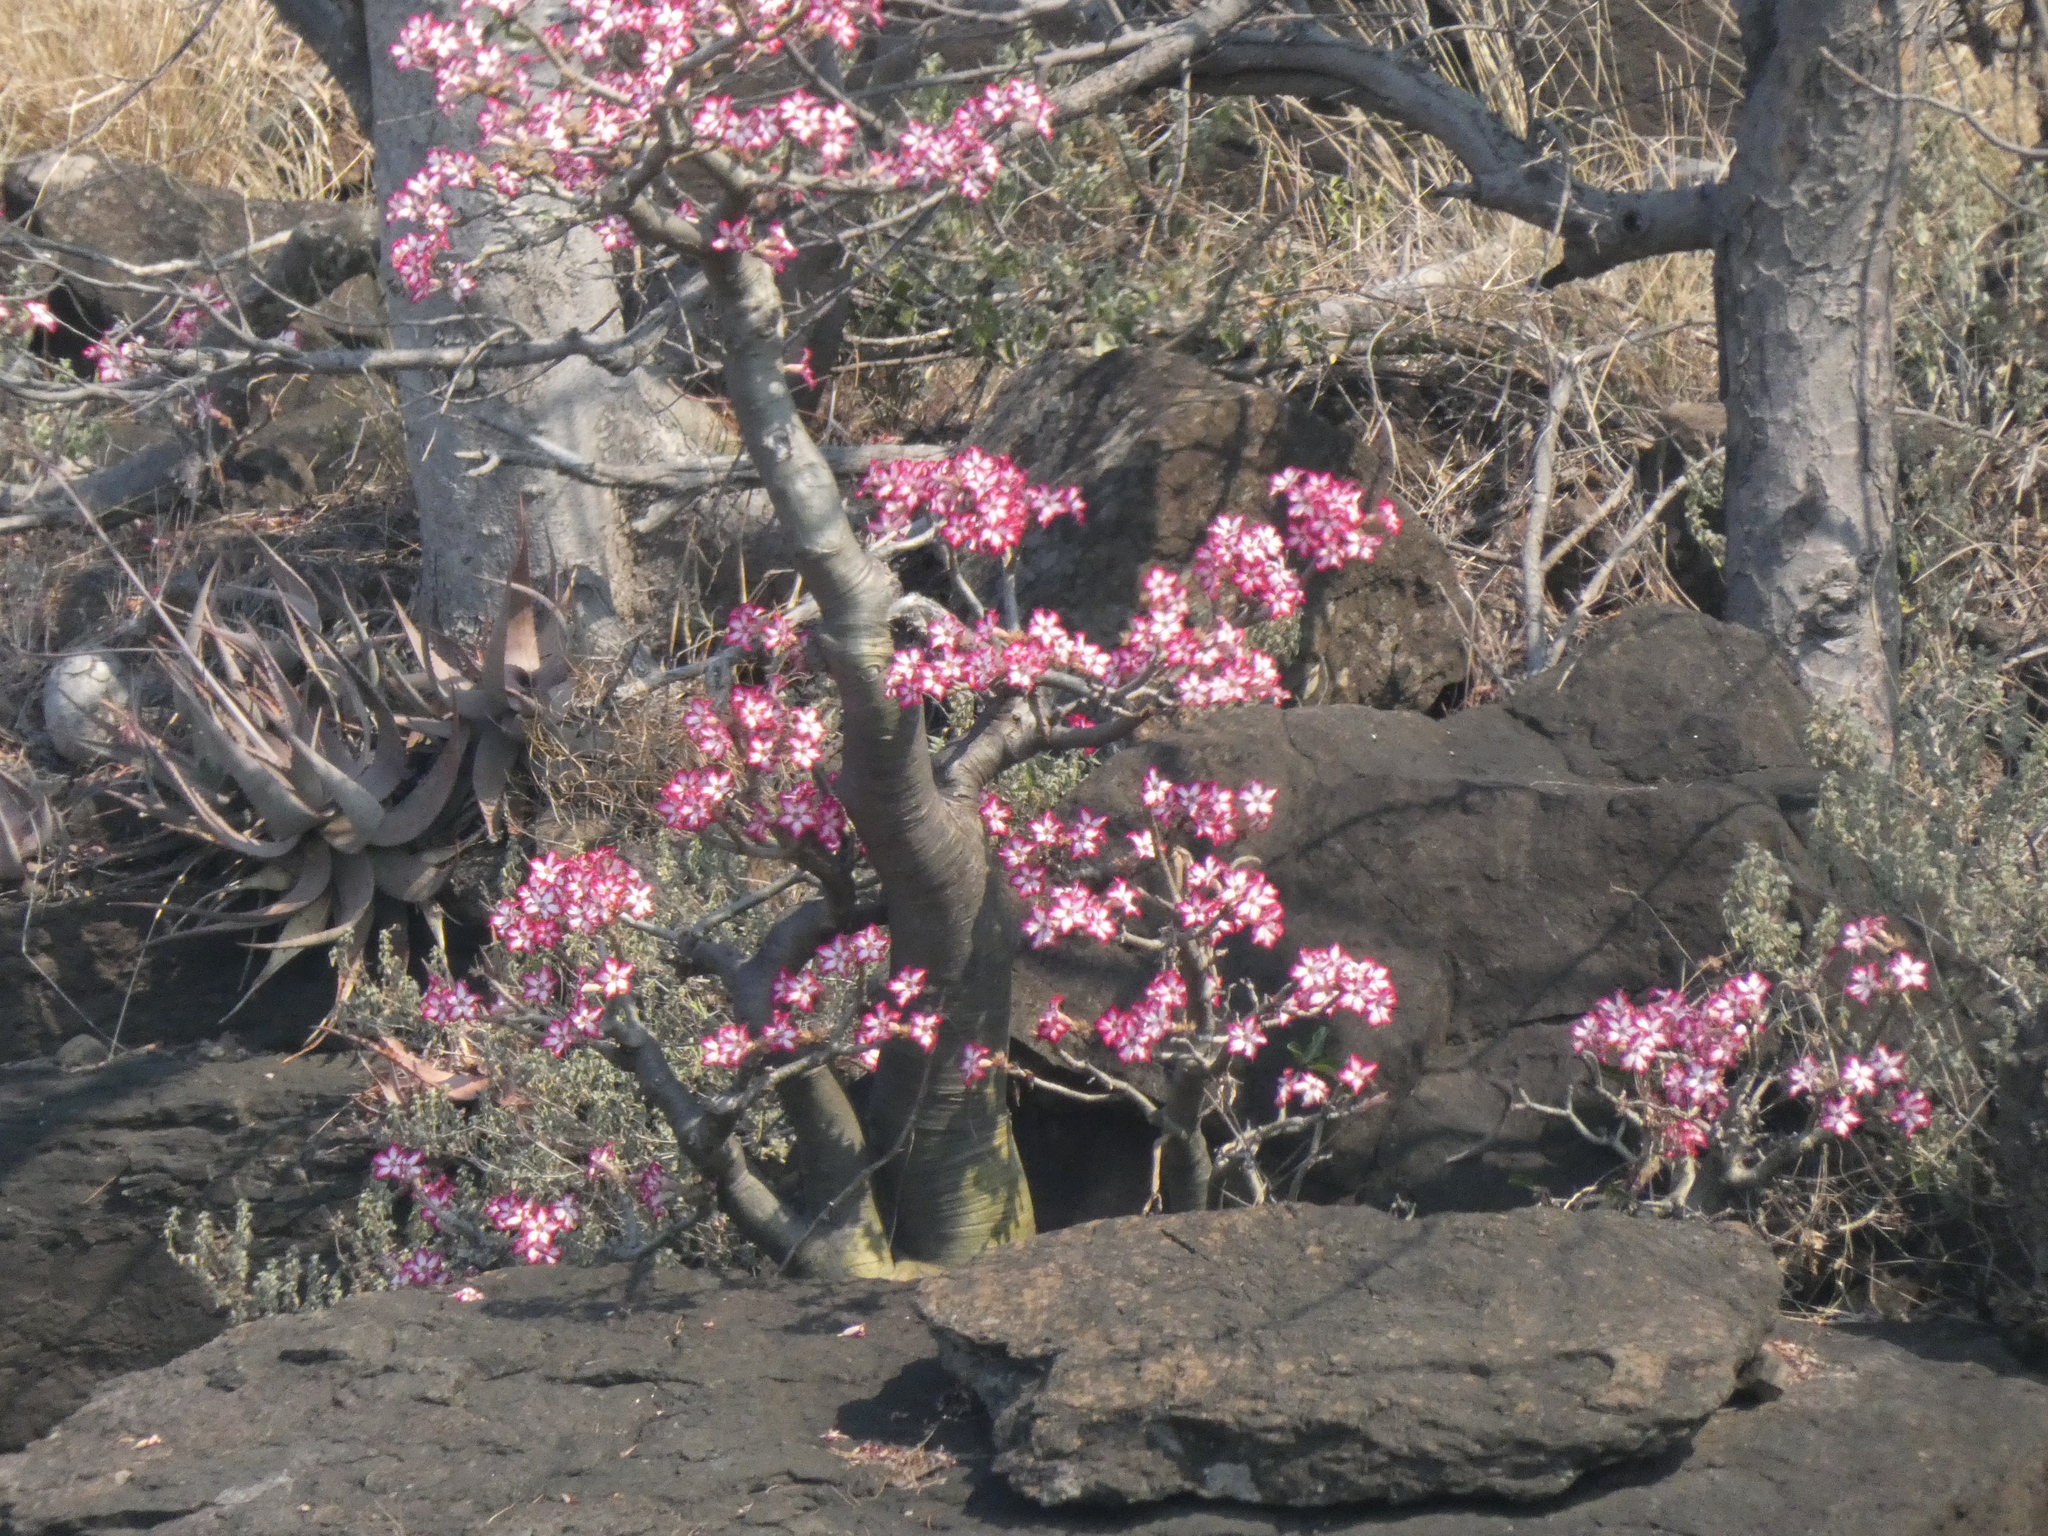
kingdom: Plantae
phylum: Tracheophyta
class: Magnoliopsida
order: Gentianales
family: Apocynaceae
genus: Adenium
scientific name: Adenium obesum
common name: Desert-rose
